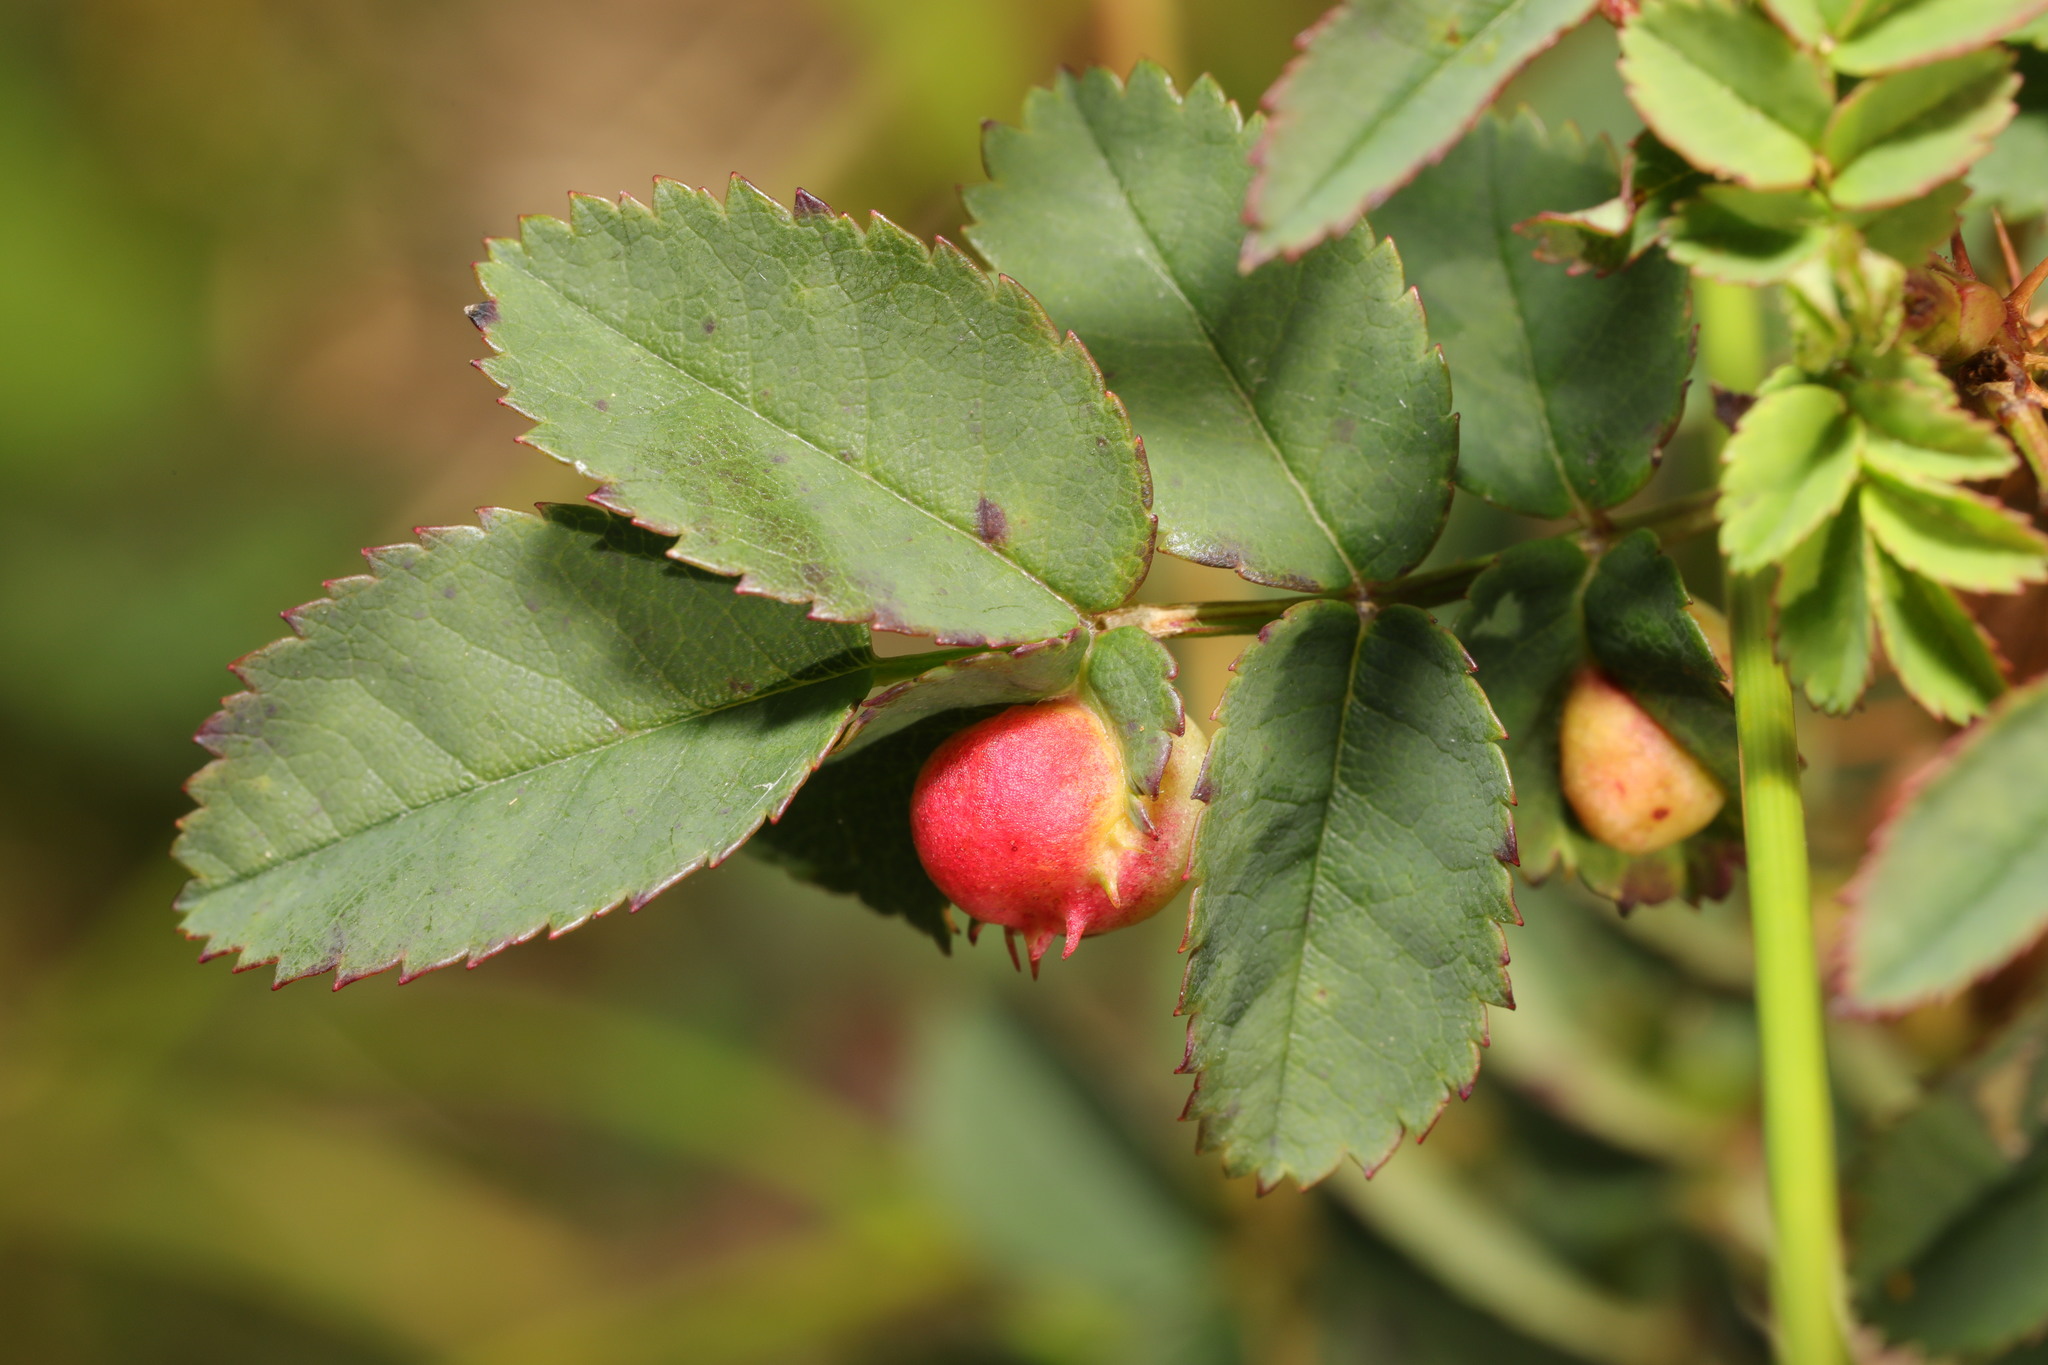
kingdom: Animalia
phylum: Arthropoda
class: Insecta
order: Hymenoptera
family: Cynipidae
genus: Diplolepis
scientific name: Diplolepis spinosissimae
